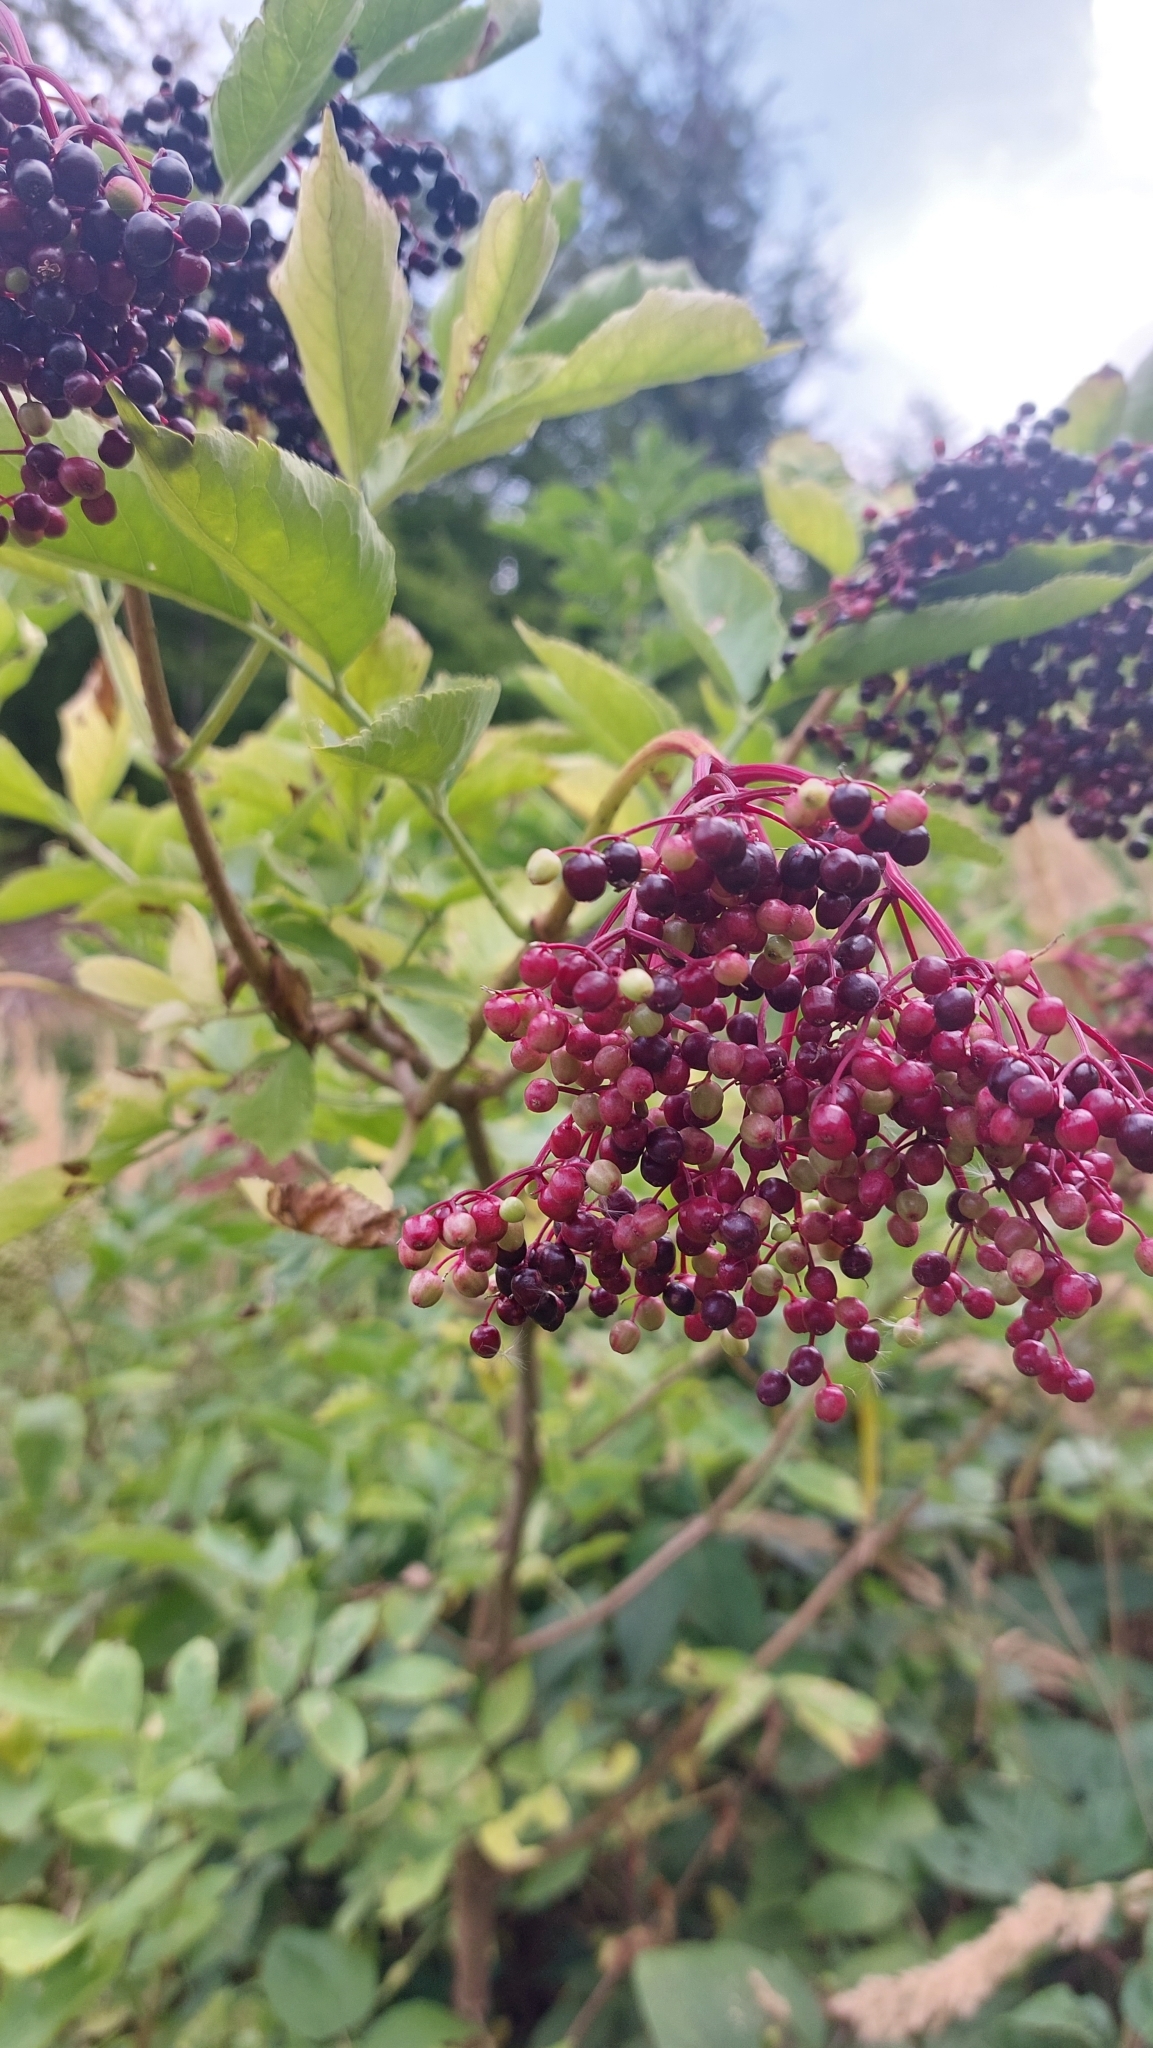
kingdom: Plantae
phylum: Tracheophyta
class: Magnoliopsida
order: Dipsacales
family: Viburnaceae
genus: Sambucus
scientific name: Sambucus nigra
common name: Elder
